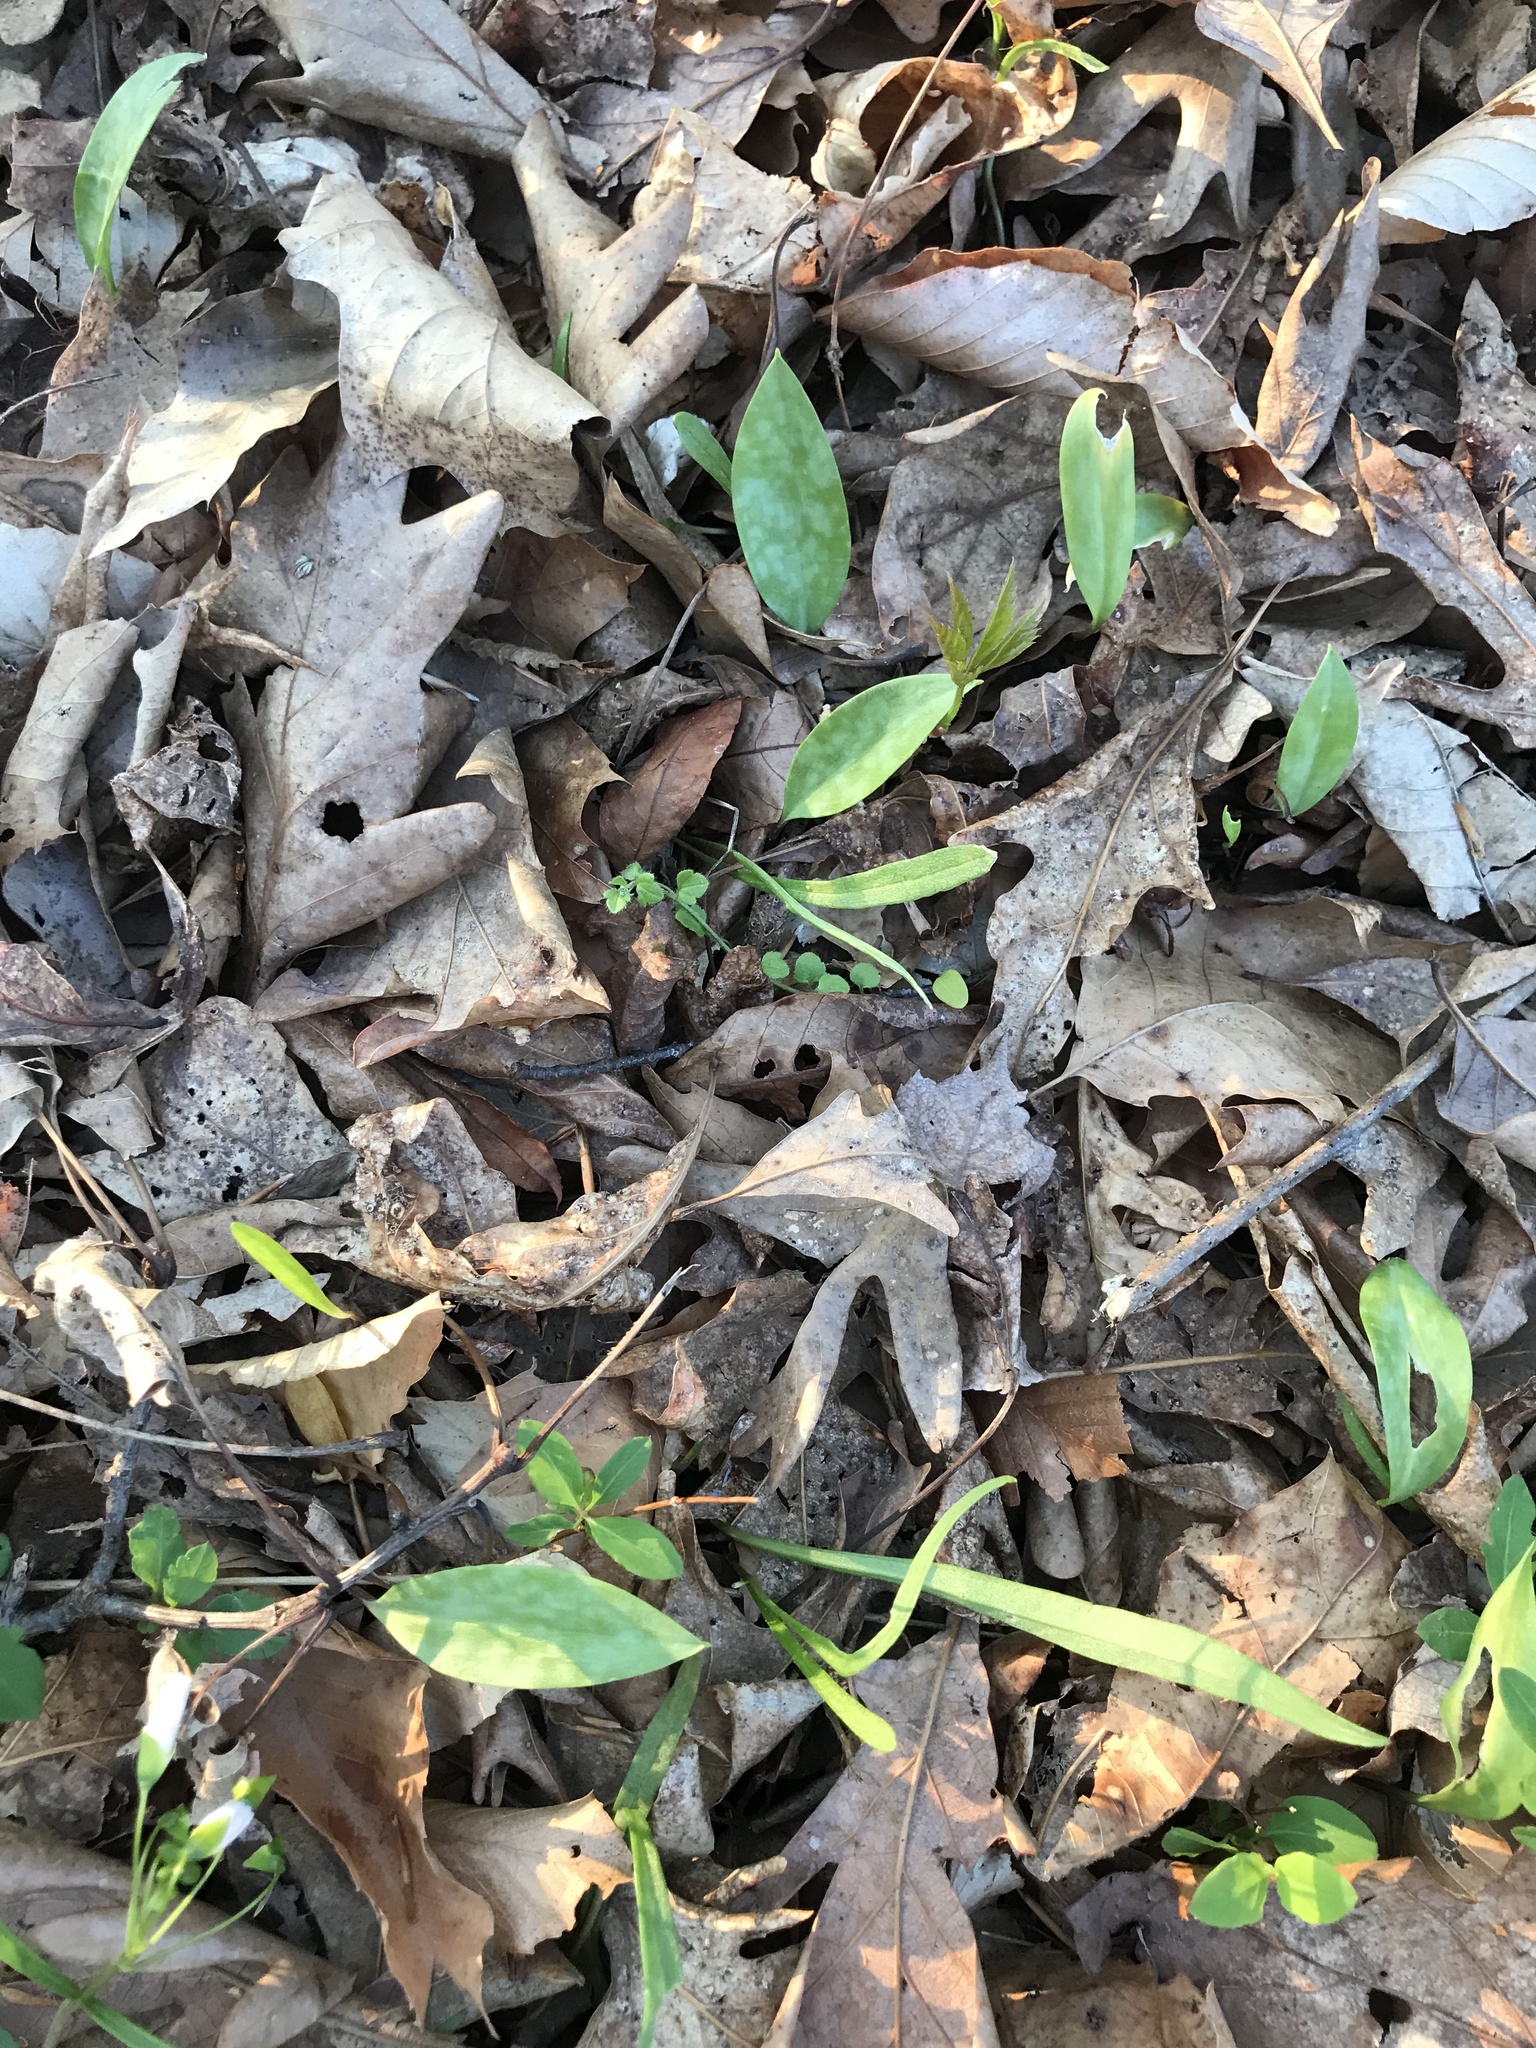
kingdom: Plantae
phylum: Tracheophyta
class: Liliopsida
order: Liliales
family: Liliaceae
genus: Erythronium
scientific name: Erythronium americanum
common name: Yellow adder's-tongue
